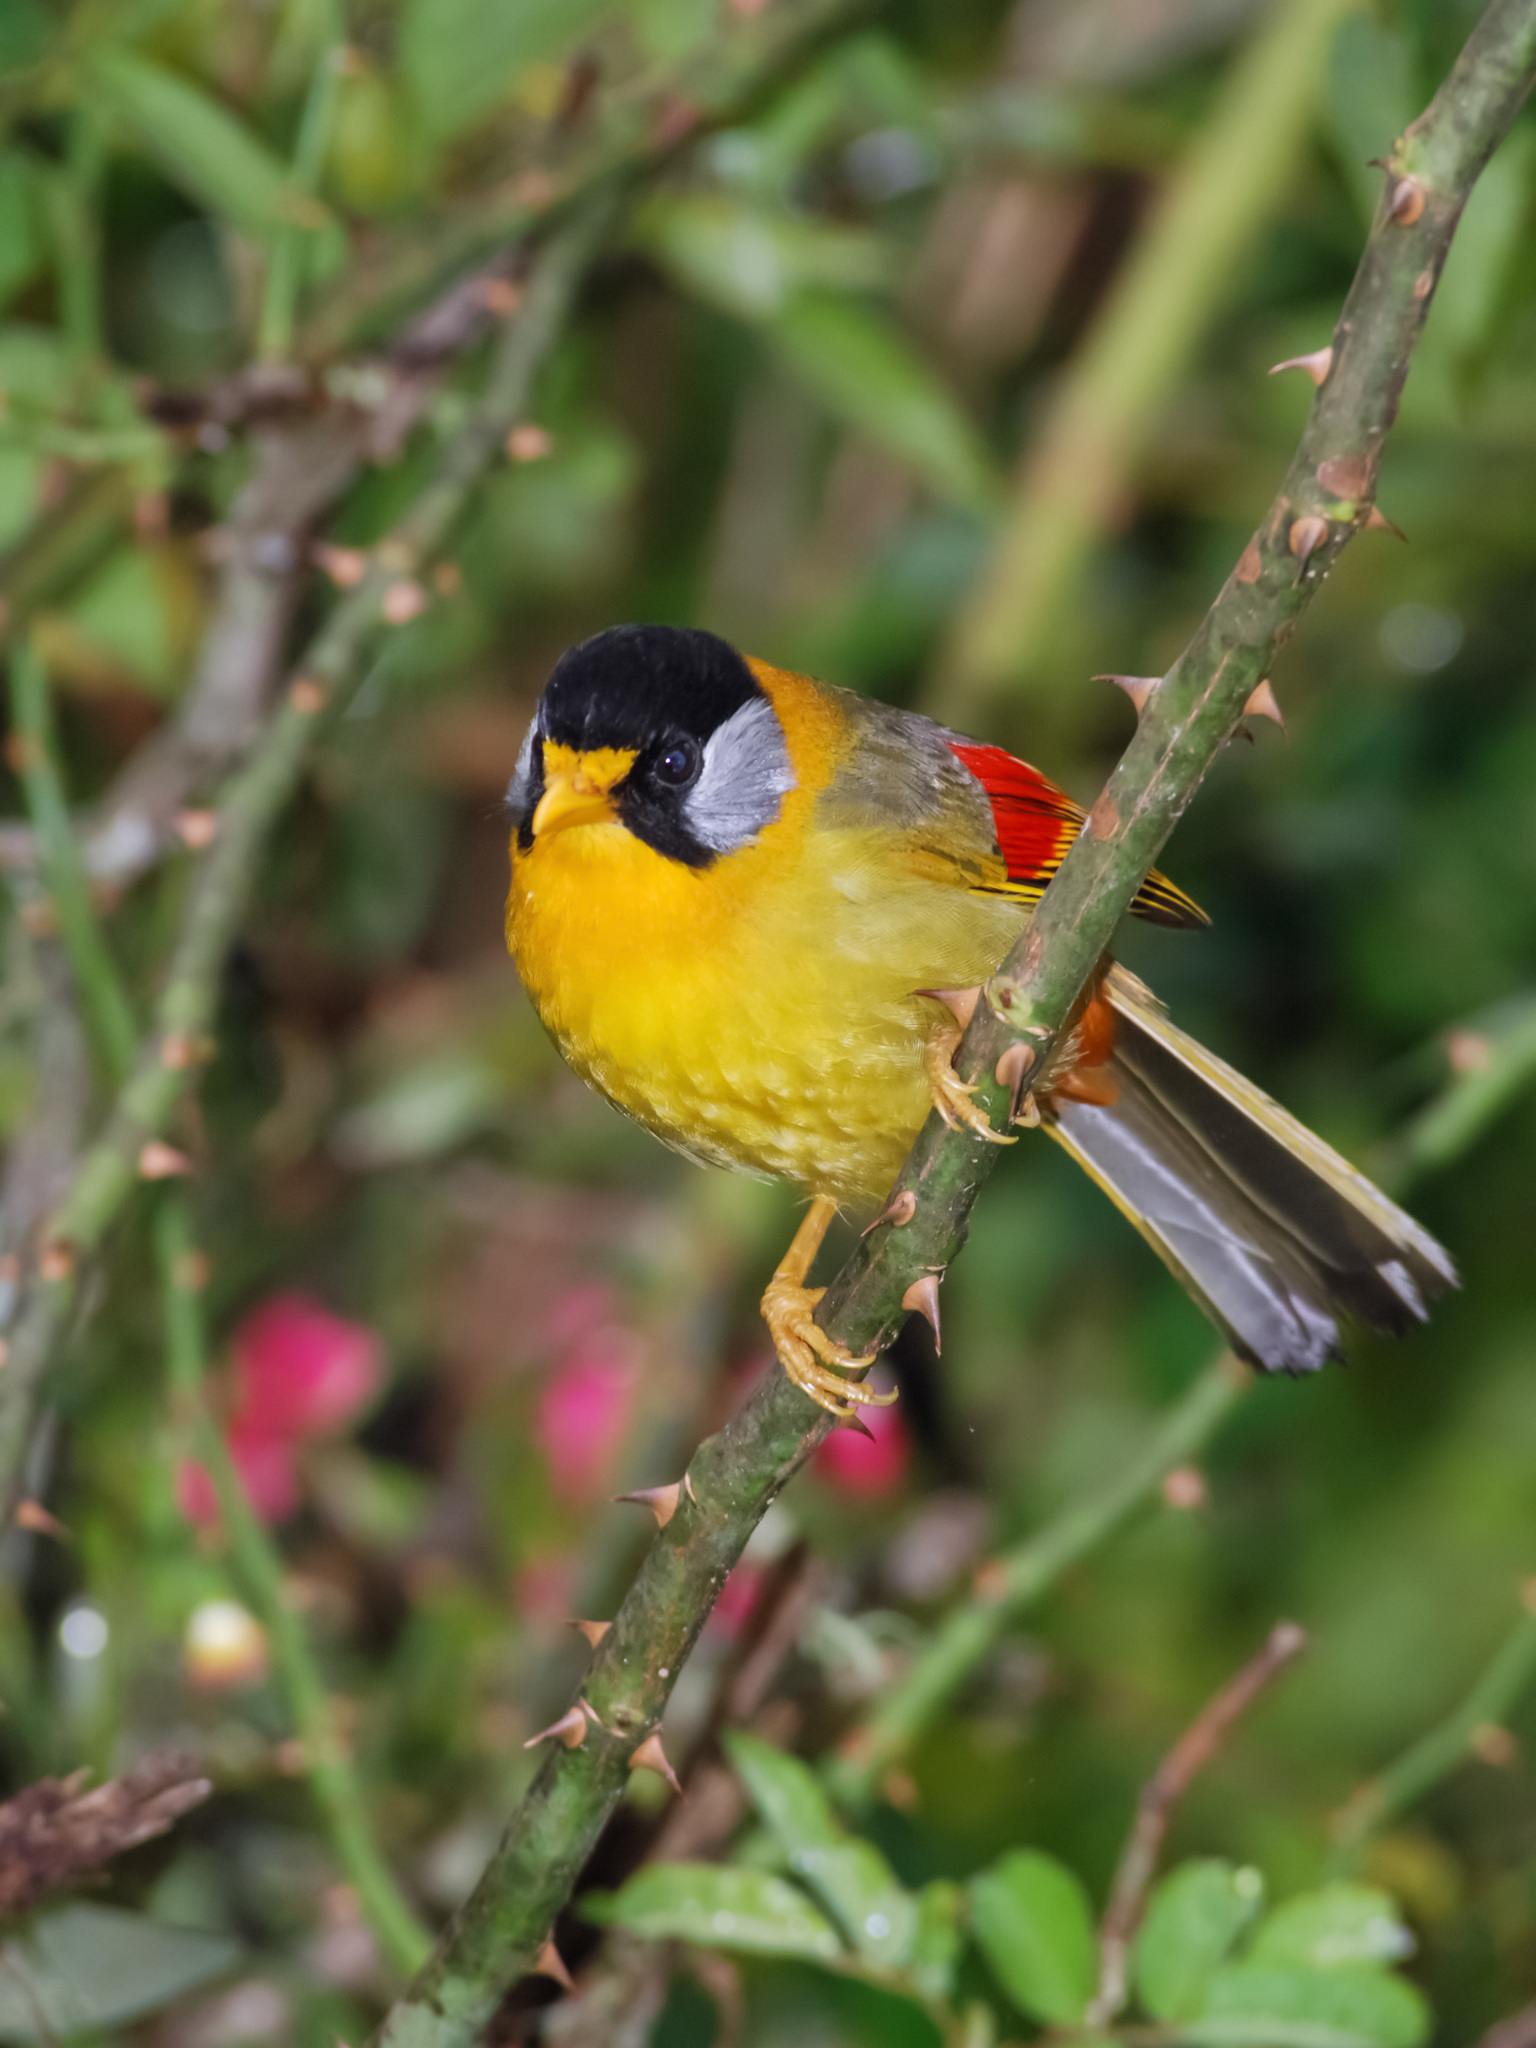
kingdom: Animalia
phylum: Chordata
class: Aves
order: Passeriformes
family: Leiothrichidae
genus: Leiothrix
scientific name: Leiothrix argentauris
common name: Silver-eared mesia
